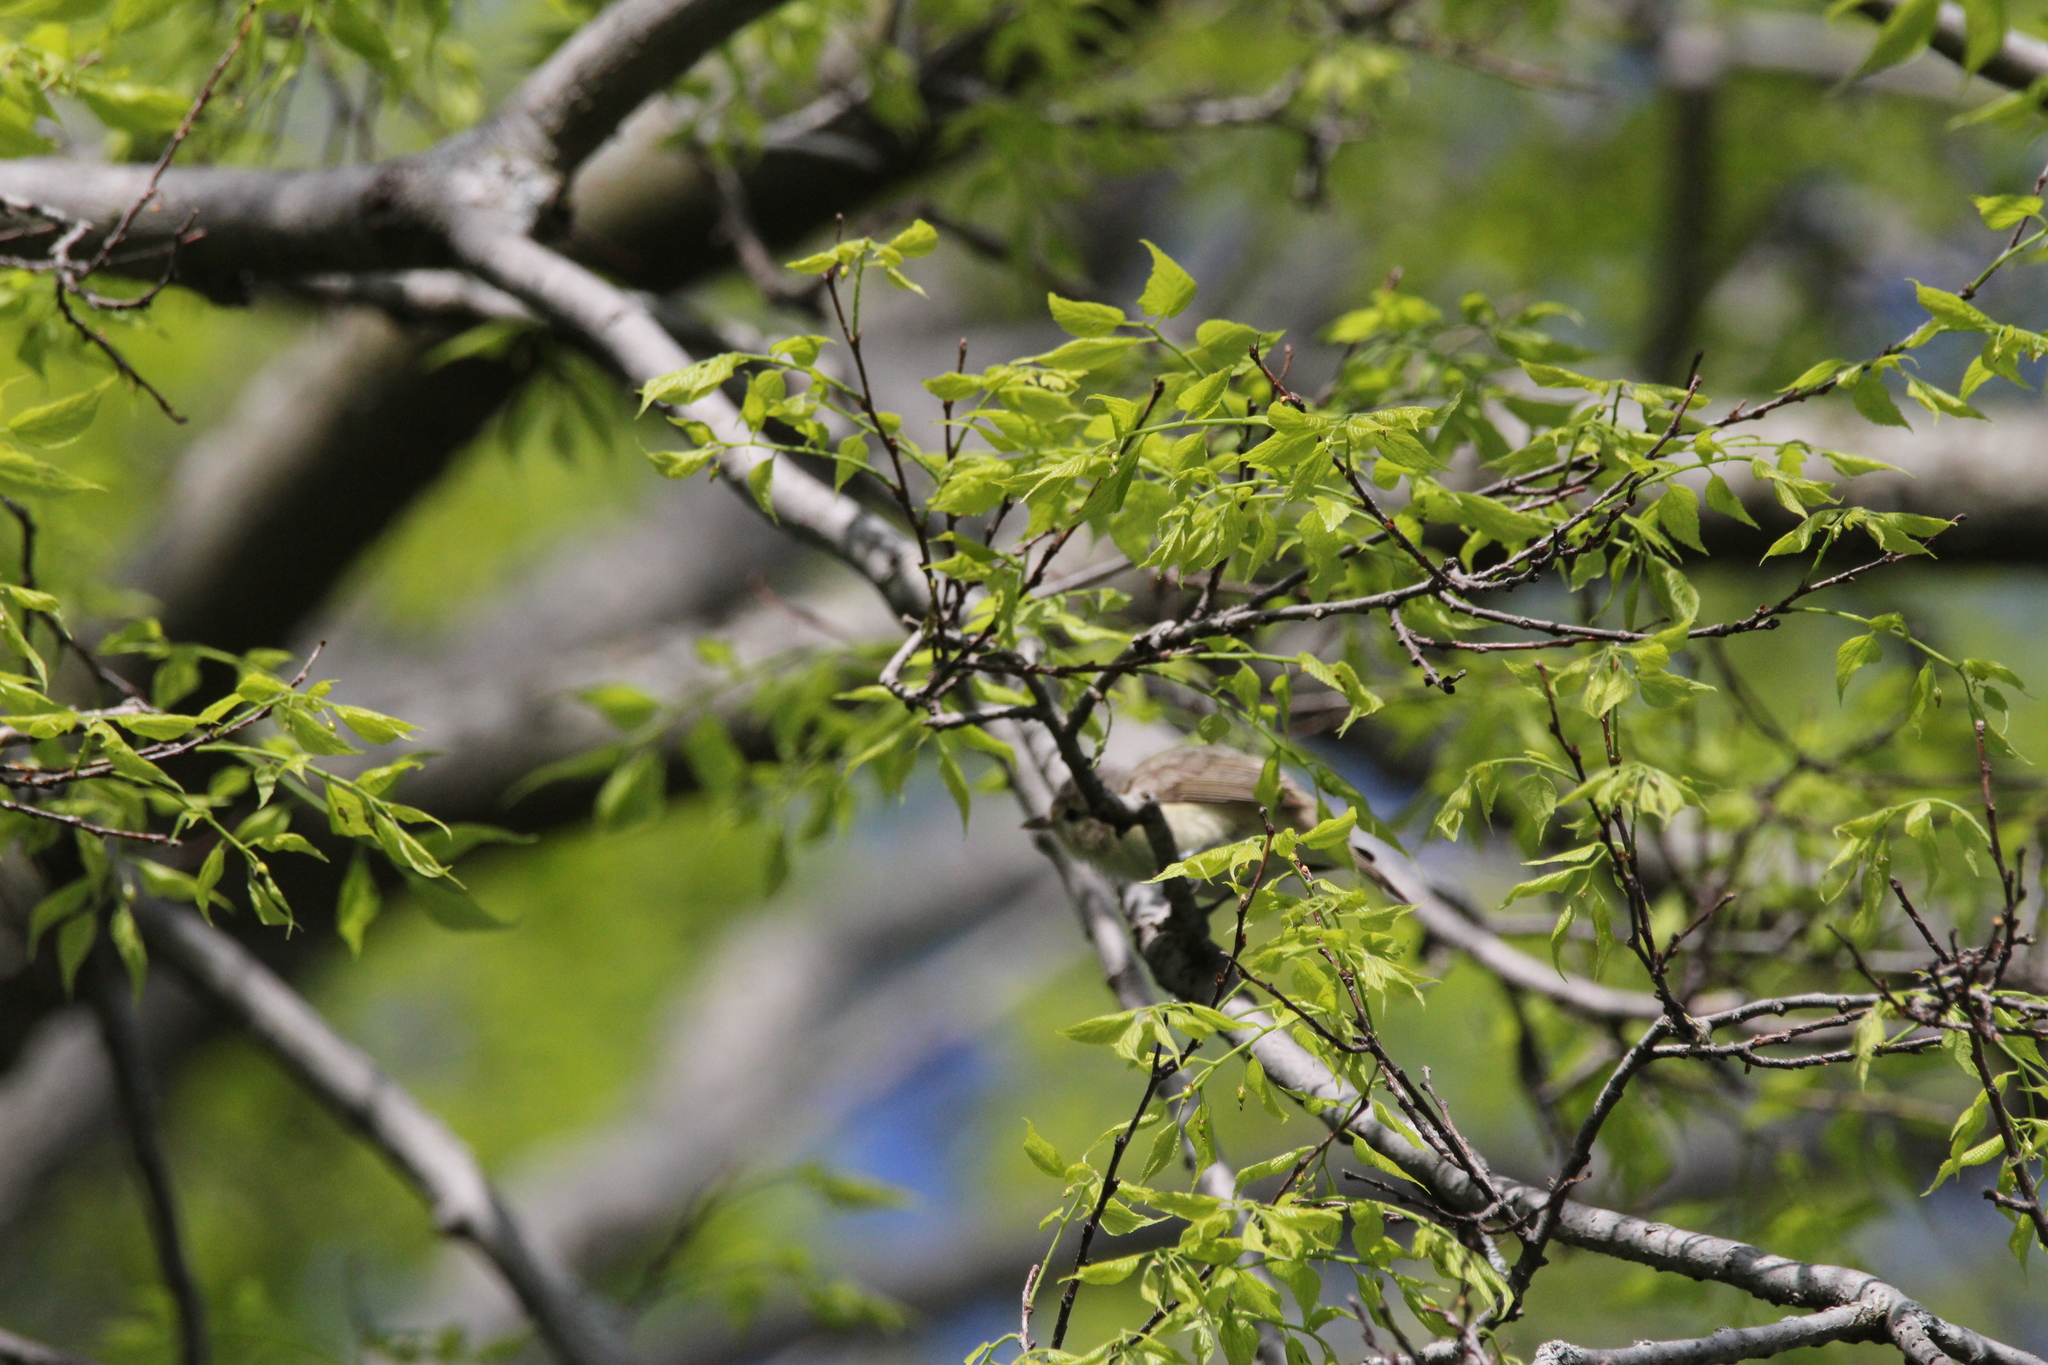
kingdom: Animalia
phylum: Chordata
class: Aves
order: Passeriformes
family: Vireonidae
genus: Vireo
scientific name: Vireo gilvus
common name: Warbling vireo
